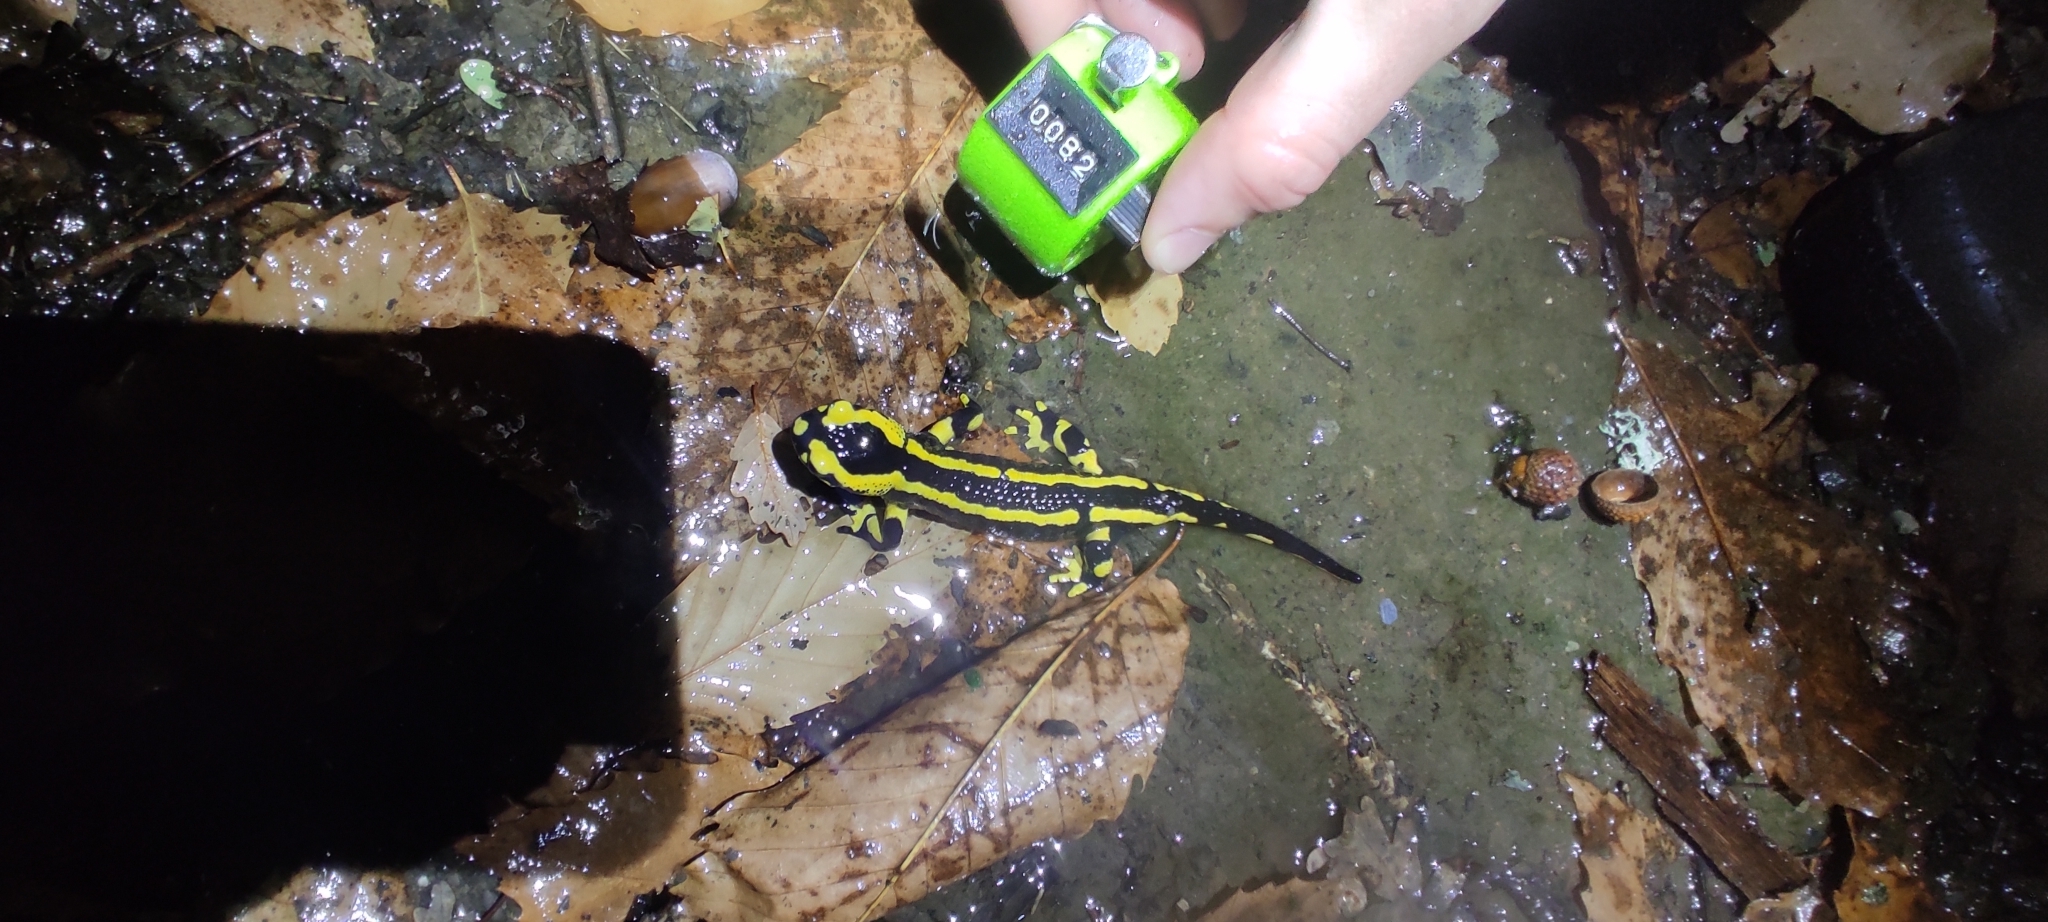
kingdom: Animalia
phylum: Chordata
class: Amphibia
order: Caudata
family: Salamandridae
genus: Salamandra
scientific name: Salamandra salamandra
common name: Fire salamander
